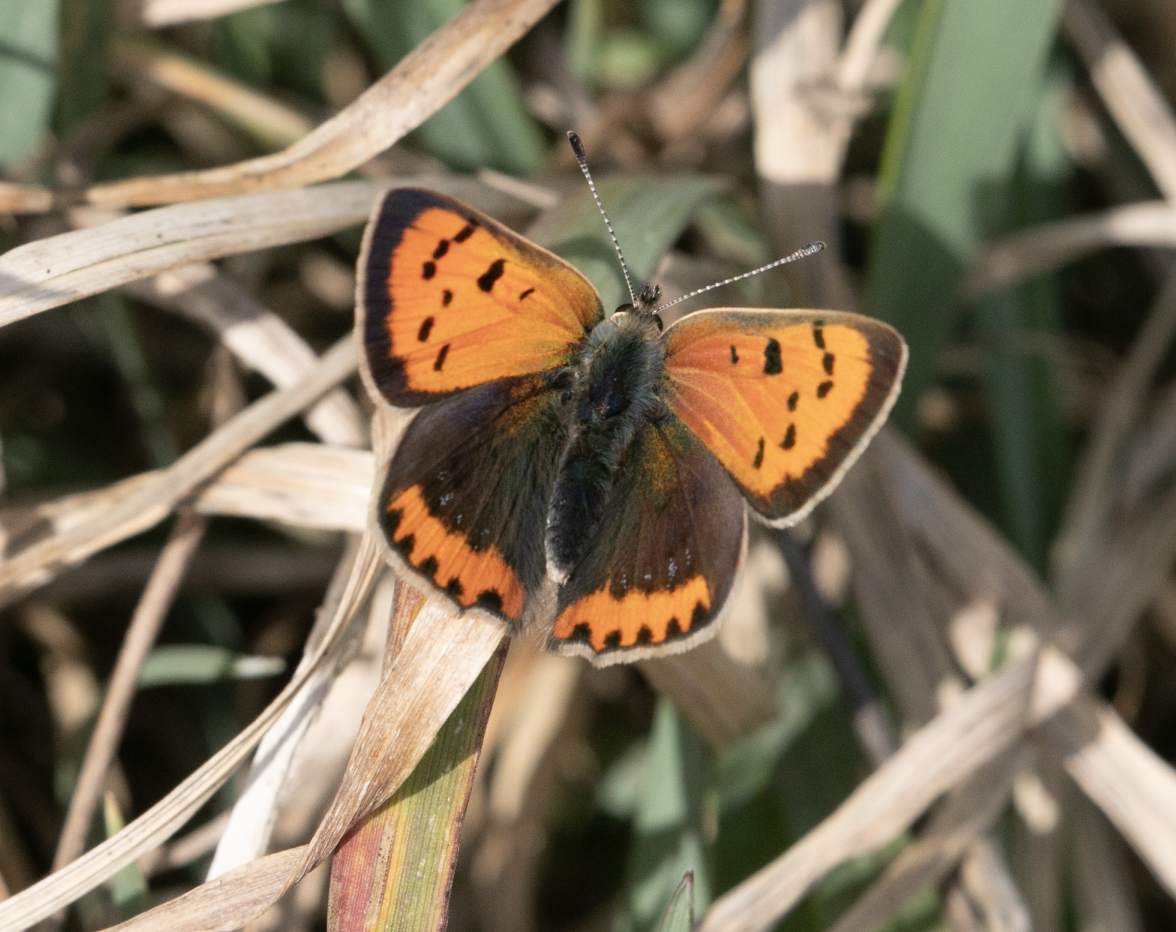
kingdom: Animalia
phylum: Arthropoda
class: Insecta
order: Lepidoptera
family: Lycaenidae
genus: Lycaena
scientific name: Lycaena phlaeas
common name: Small copper
